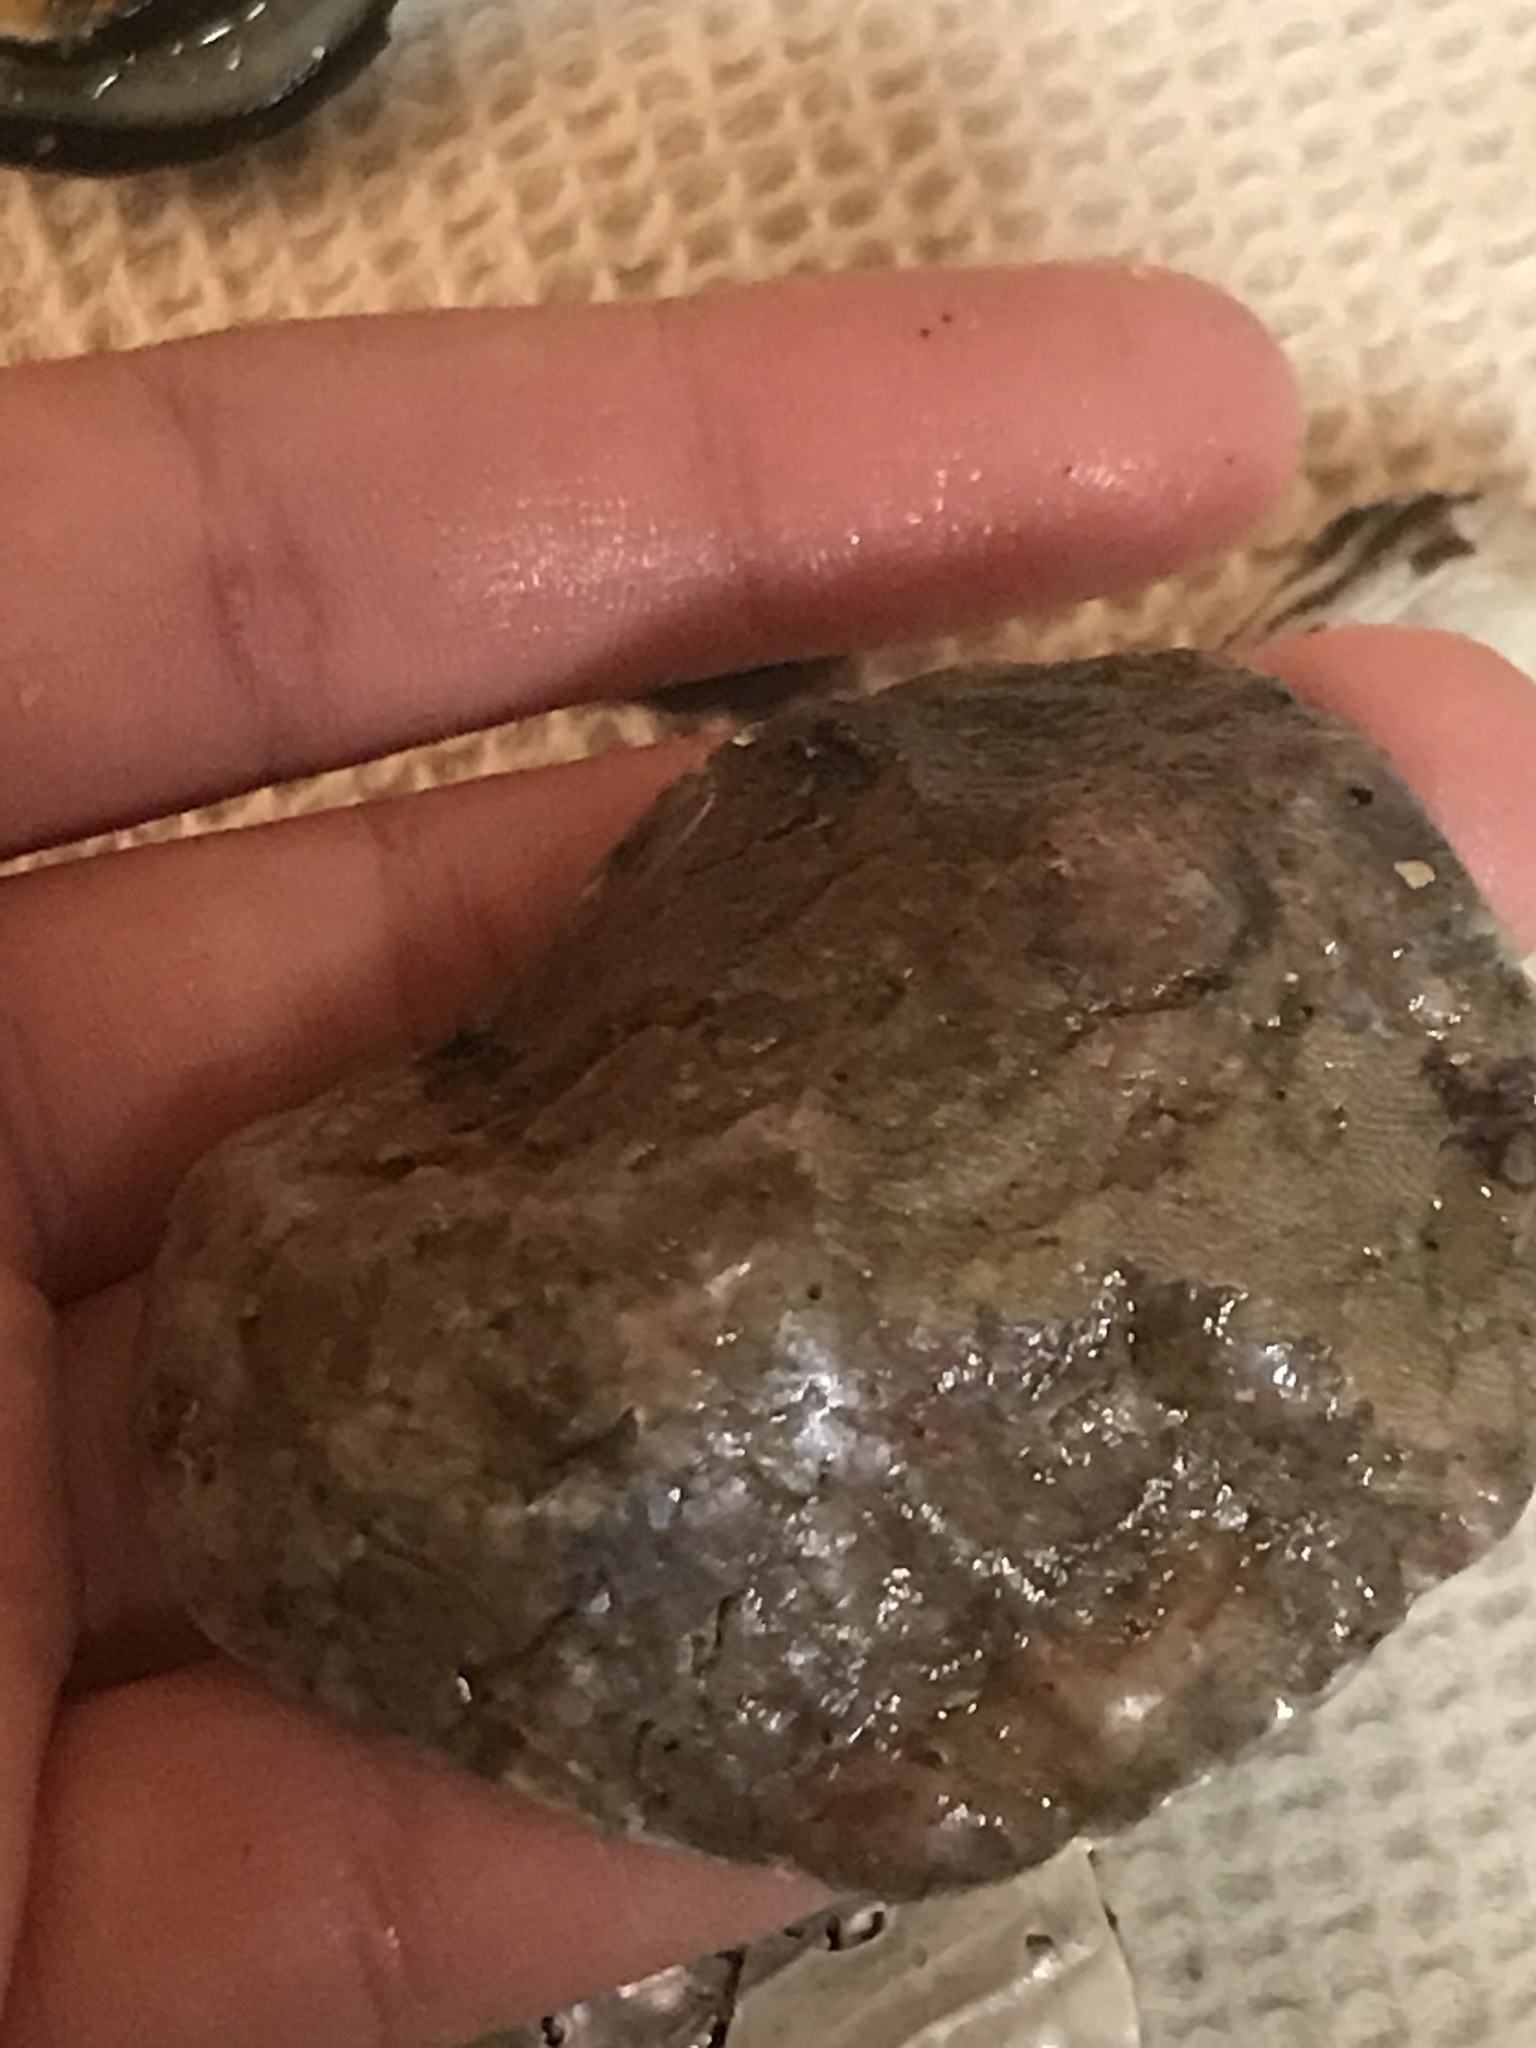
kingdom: Animalia
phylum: Mollusca
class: Bivalvia
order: Pectinida
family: Anomiidae
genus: Pododesmus
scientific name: Pododesmus macrochisma
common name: Alaska jingle
